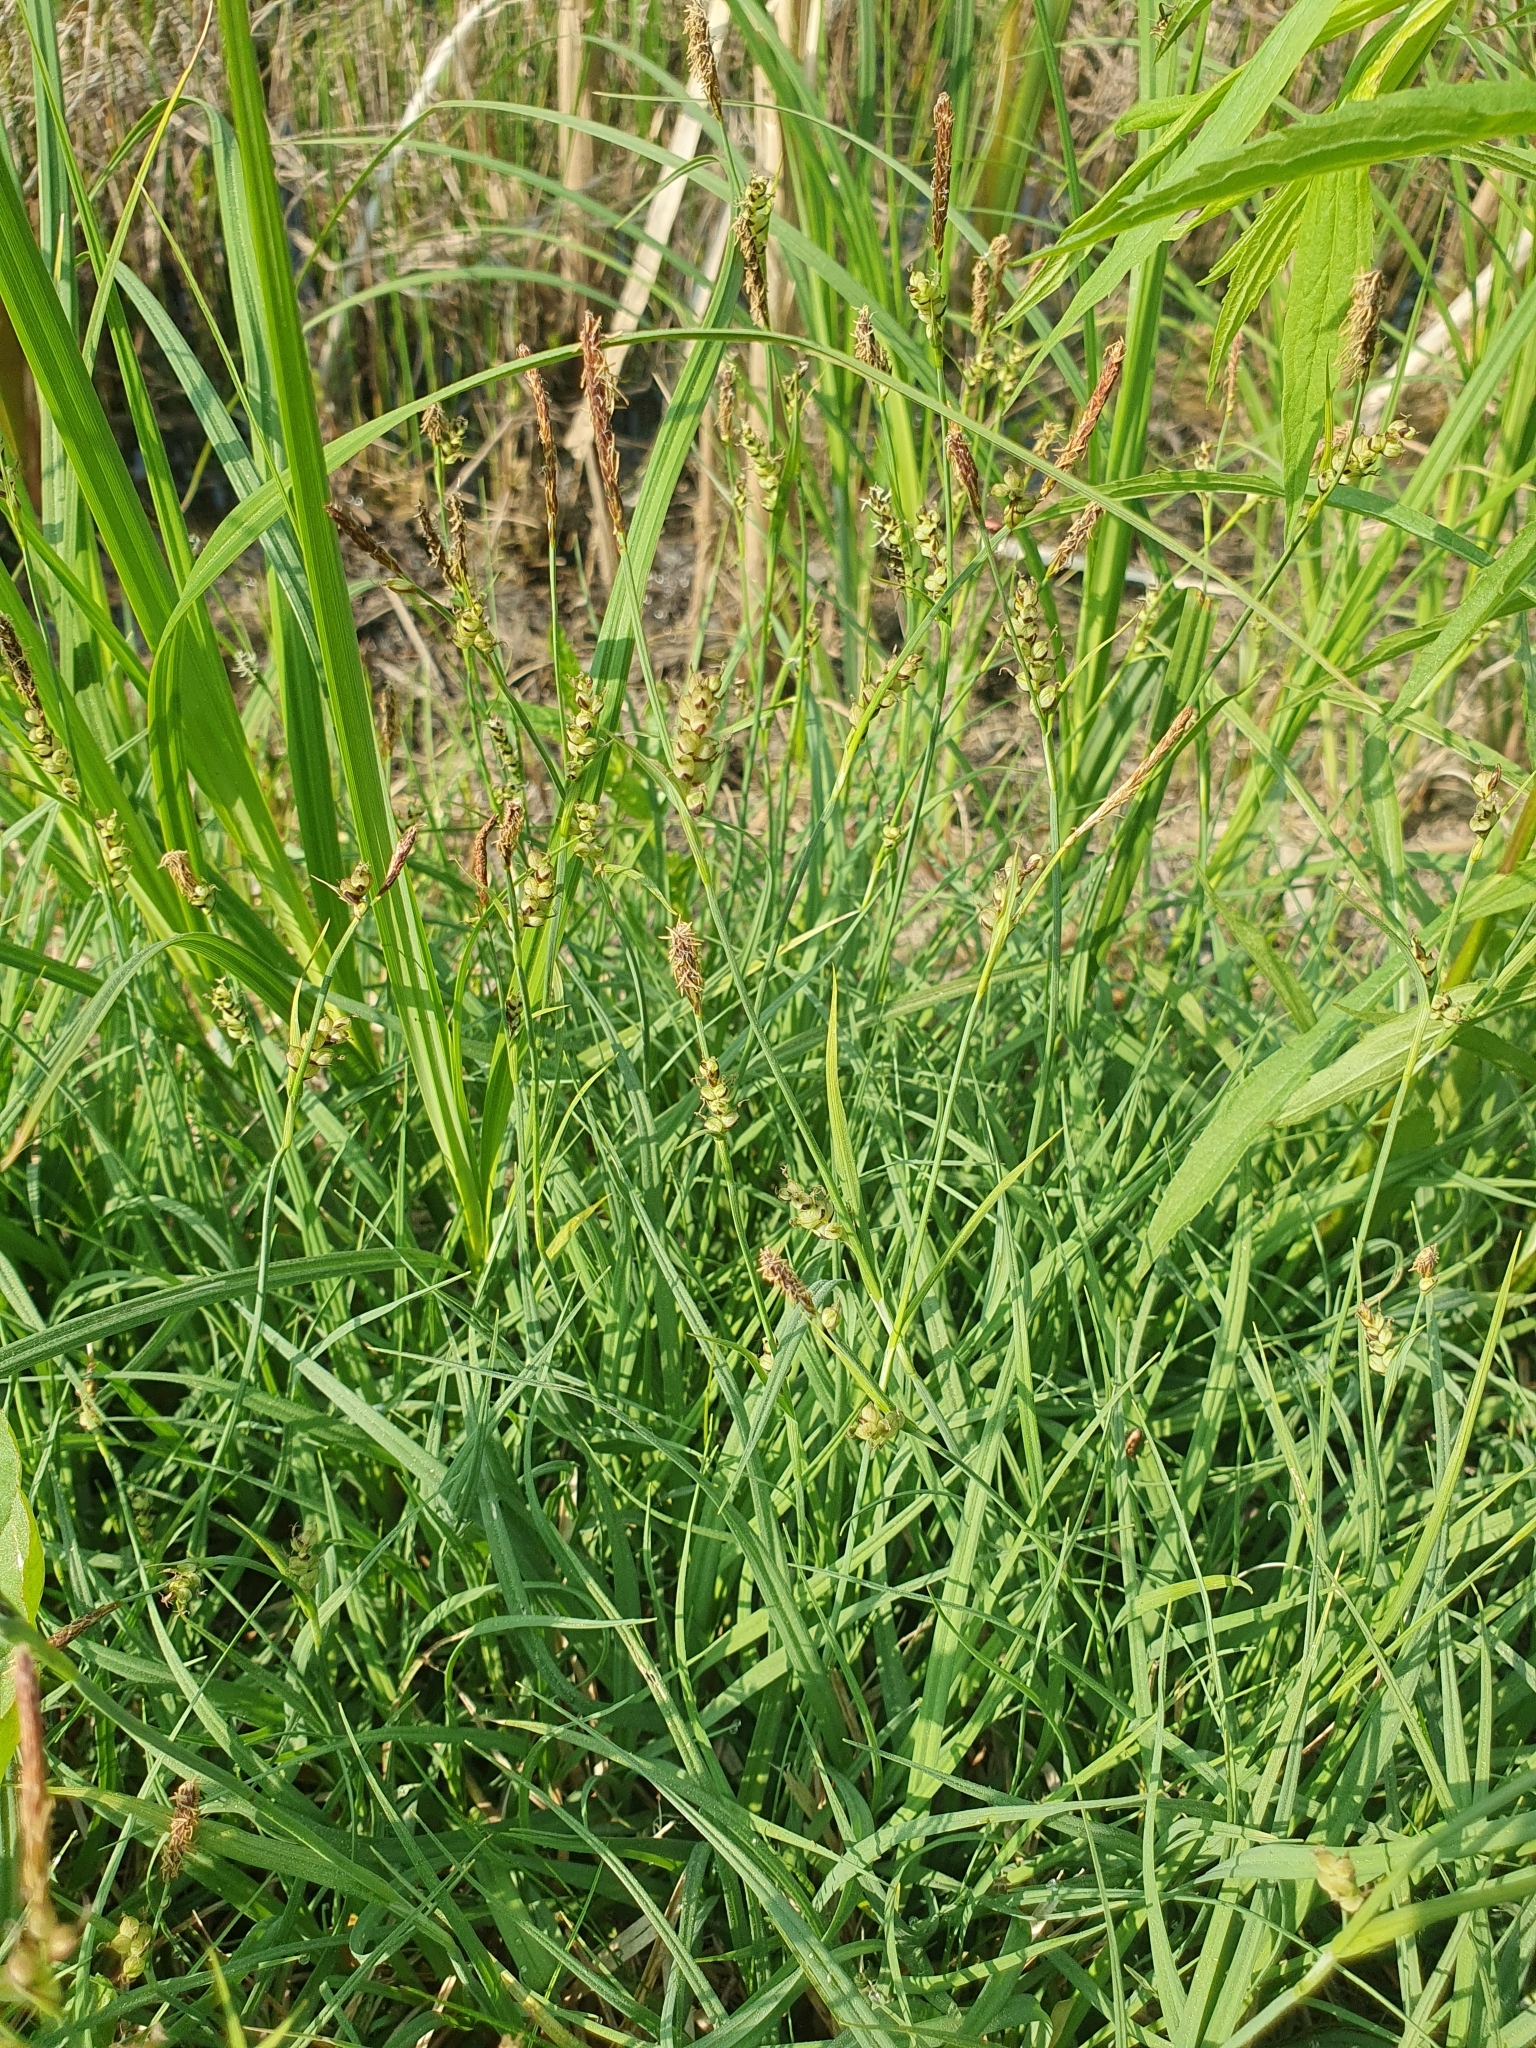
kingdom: Plantae
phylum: Tracheophyta
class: Liliopsida
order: Poales
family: Cyperaceae
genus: Carex
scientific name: Carex panicea
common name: Carnation sedge
